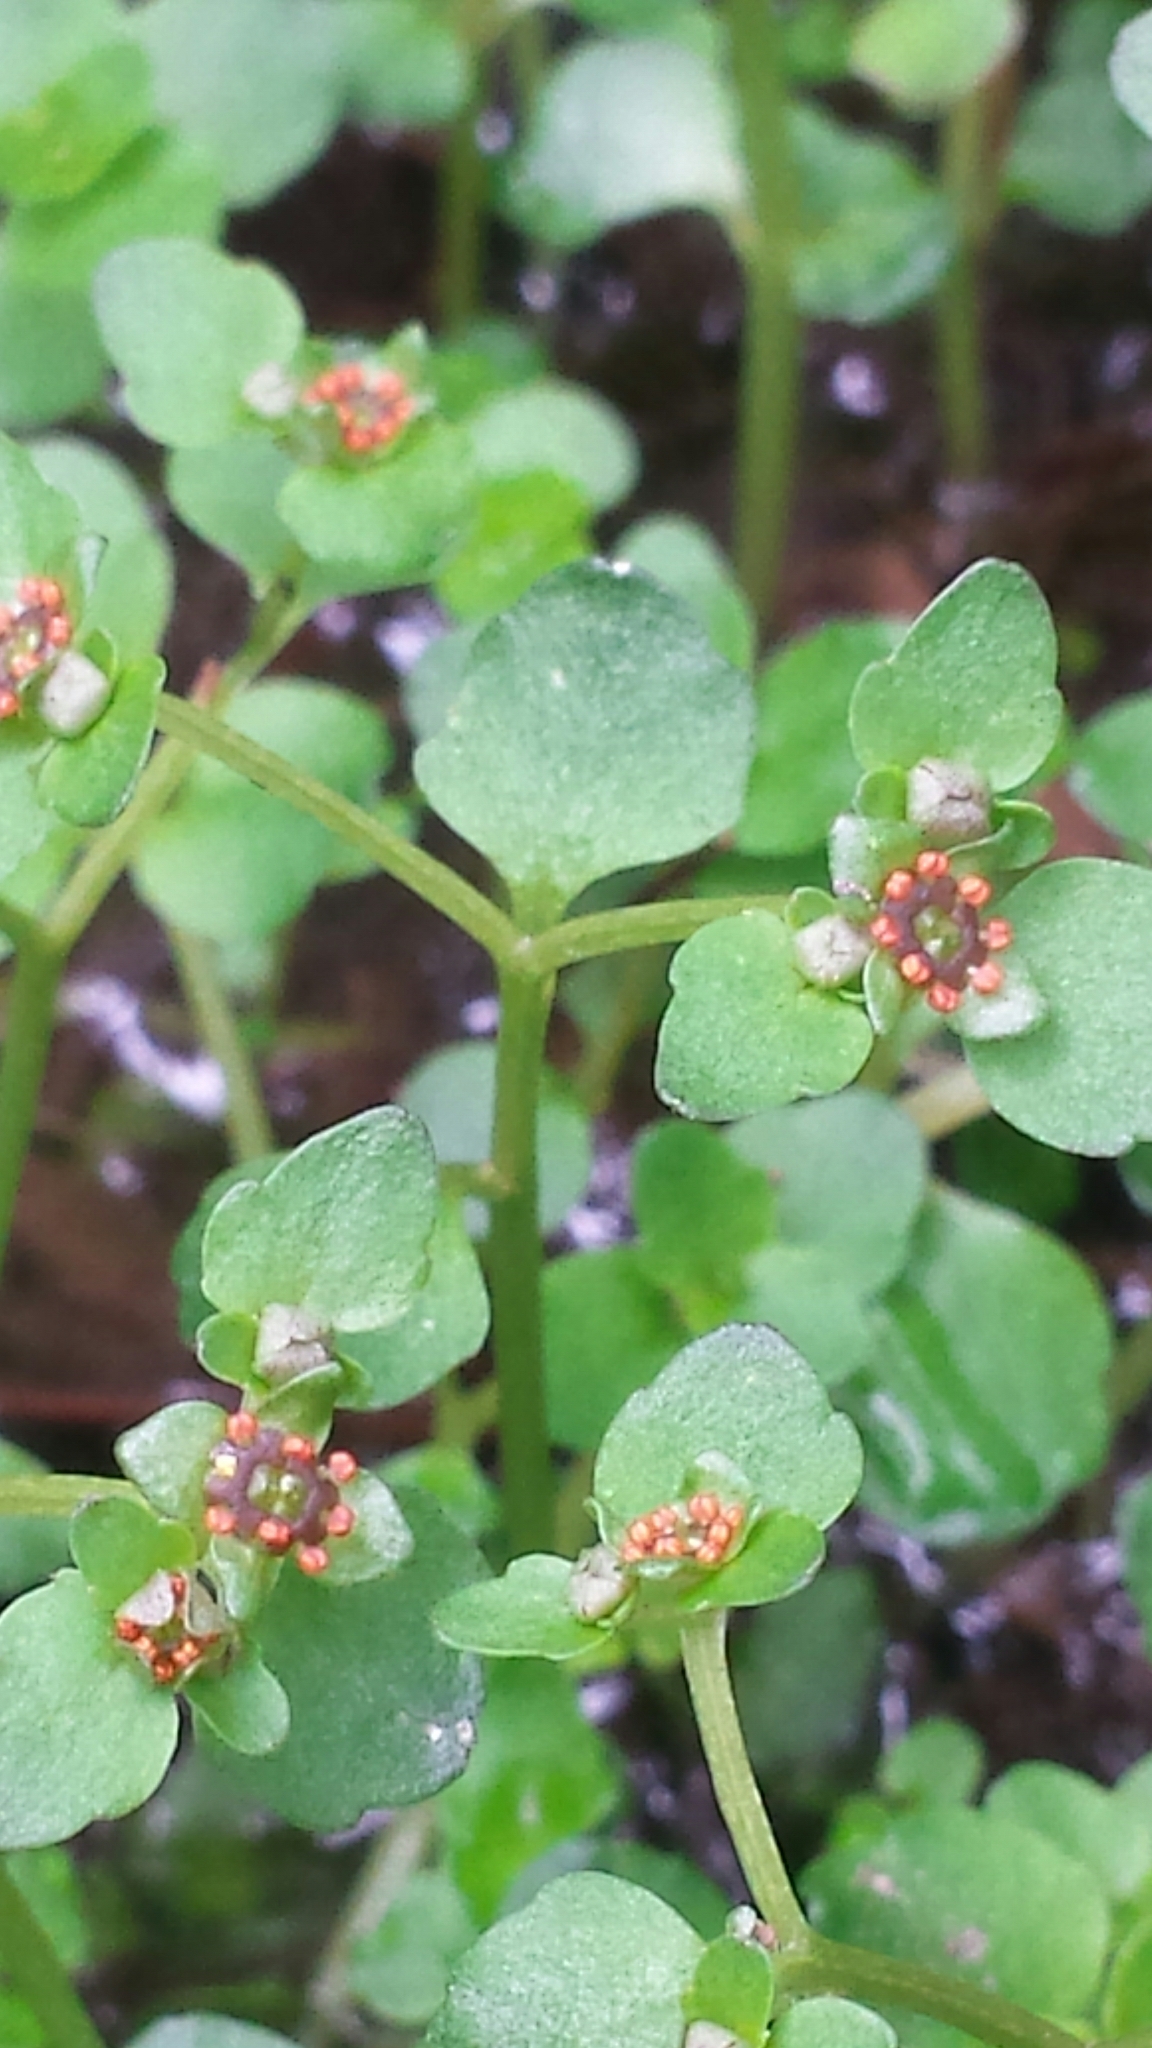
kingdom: Plantae
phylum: Tracheophyta
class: Magnoliopsida
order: Saxifragales
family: Saxifragaceae
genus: Chrysosplenium
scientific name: Chrysosplenium americanum
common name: American golden-saxifrage
